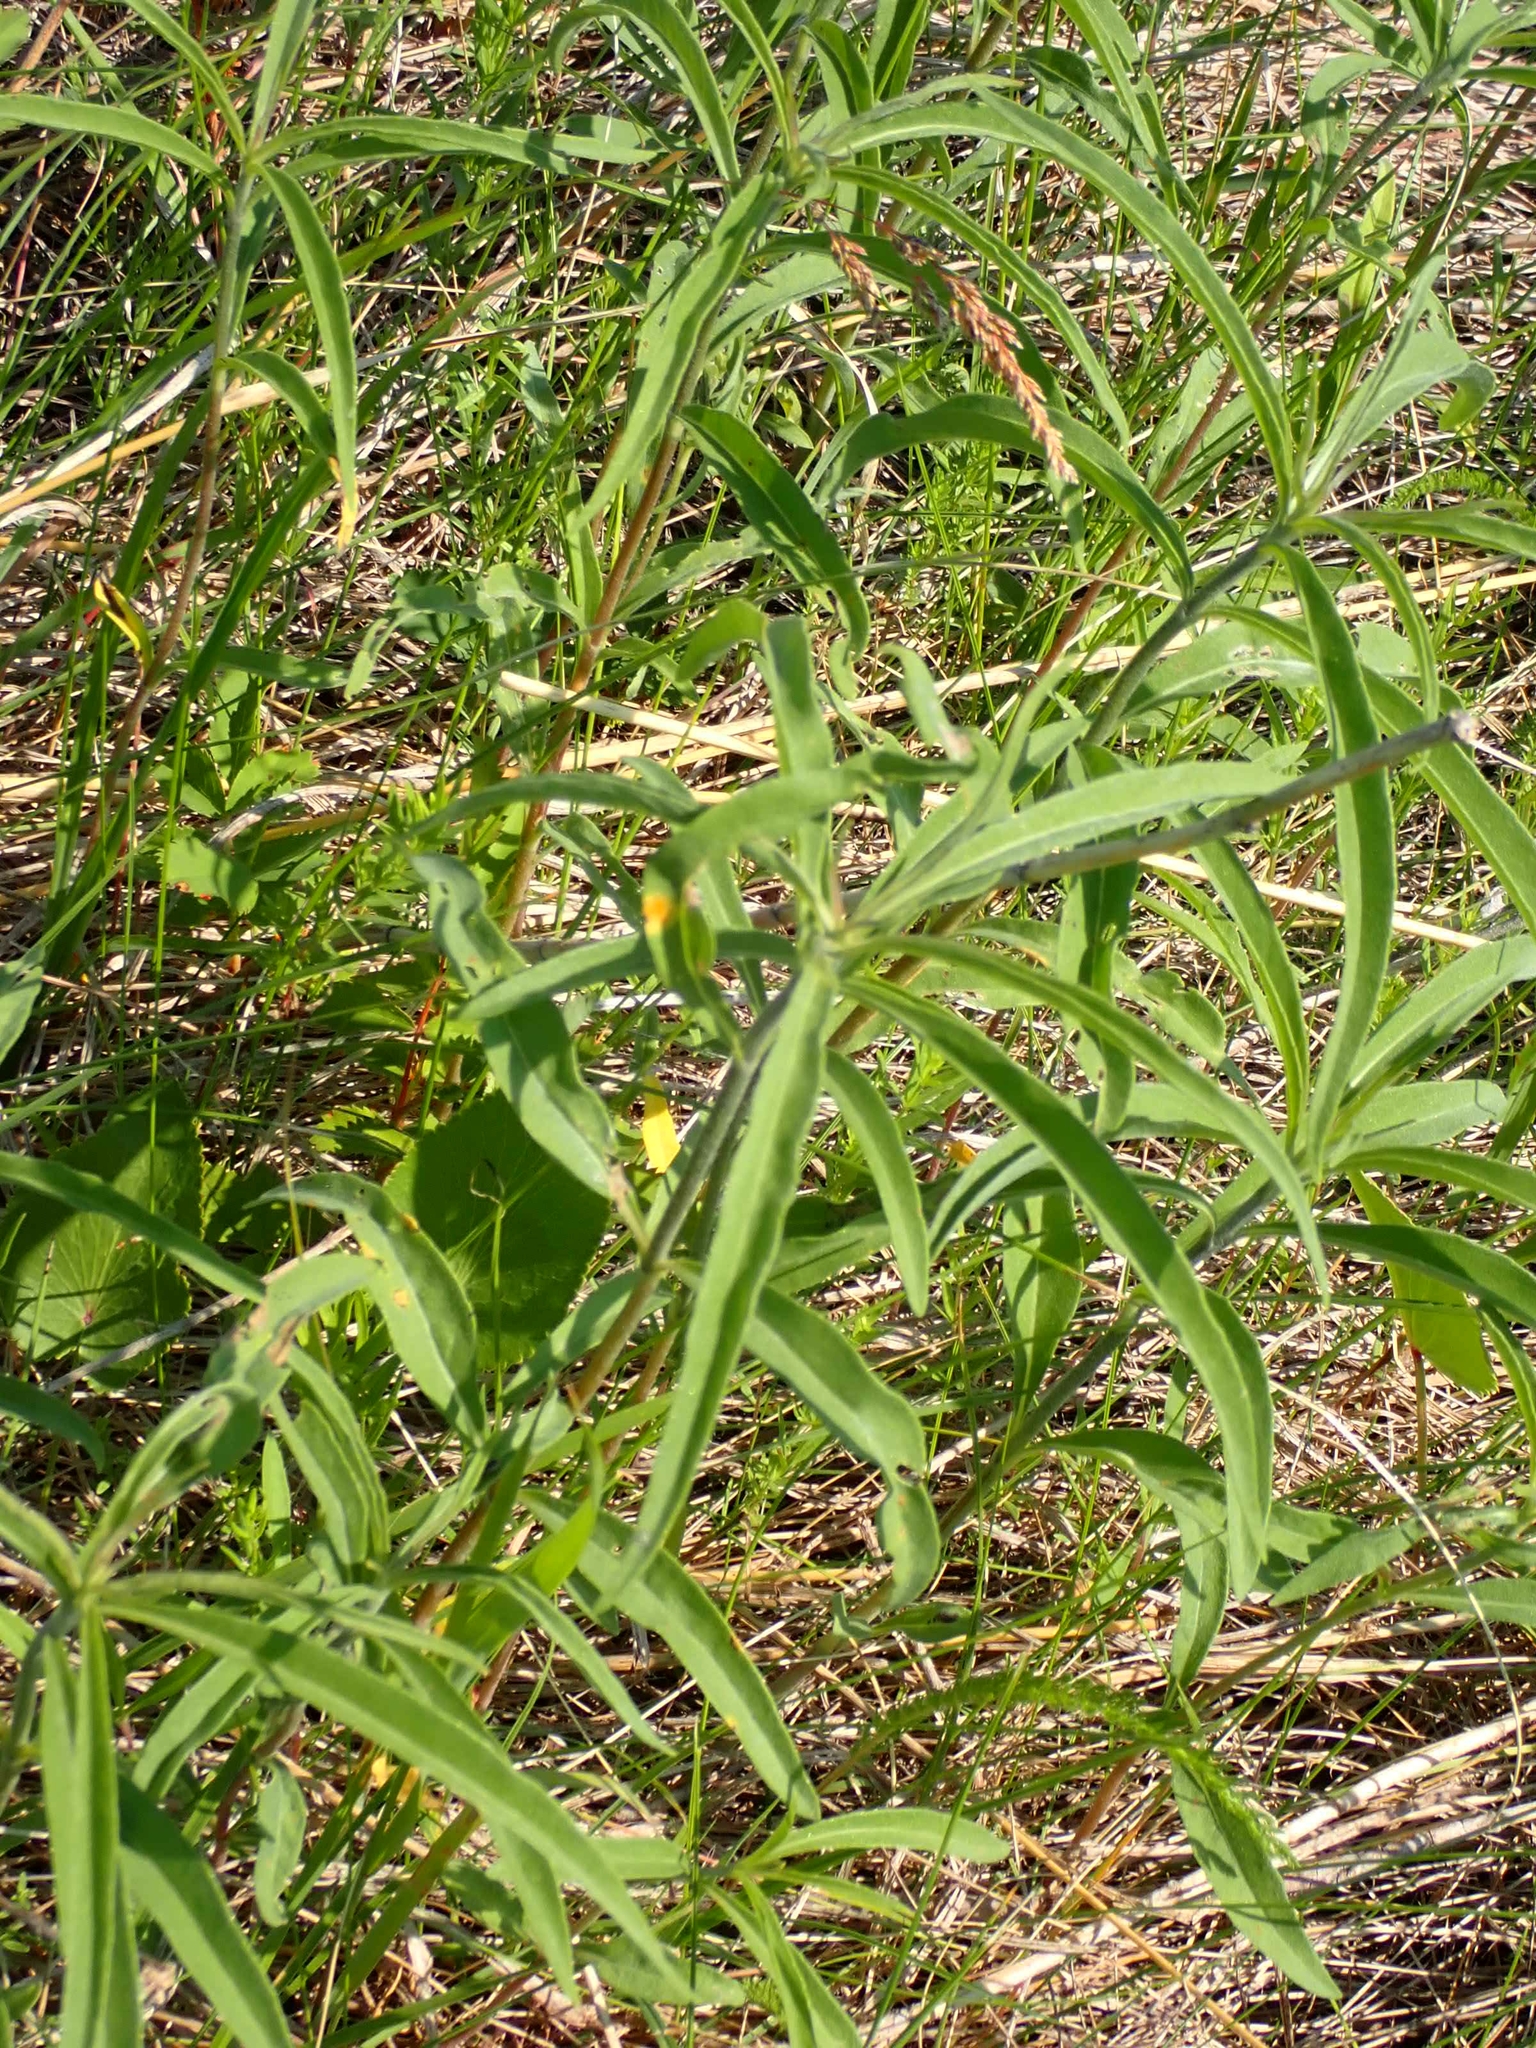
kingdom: Plantae
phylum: Tracheophyta
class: Magnoliopsida
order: Asterales
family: Asteraceae
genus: Helianthus
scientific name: Helianthus maximiliani
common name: Maximilian's sunflower
